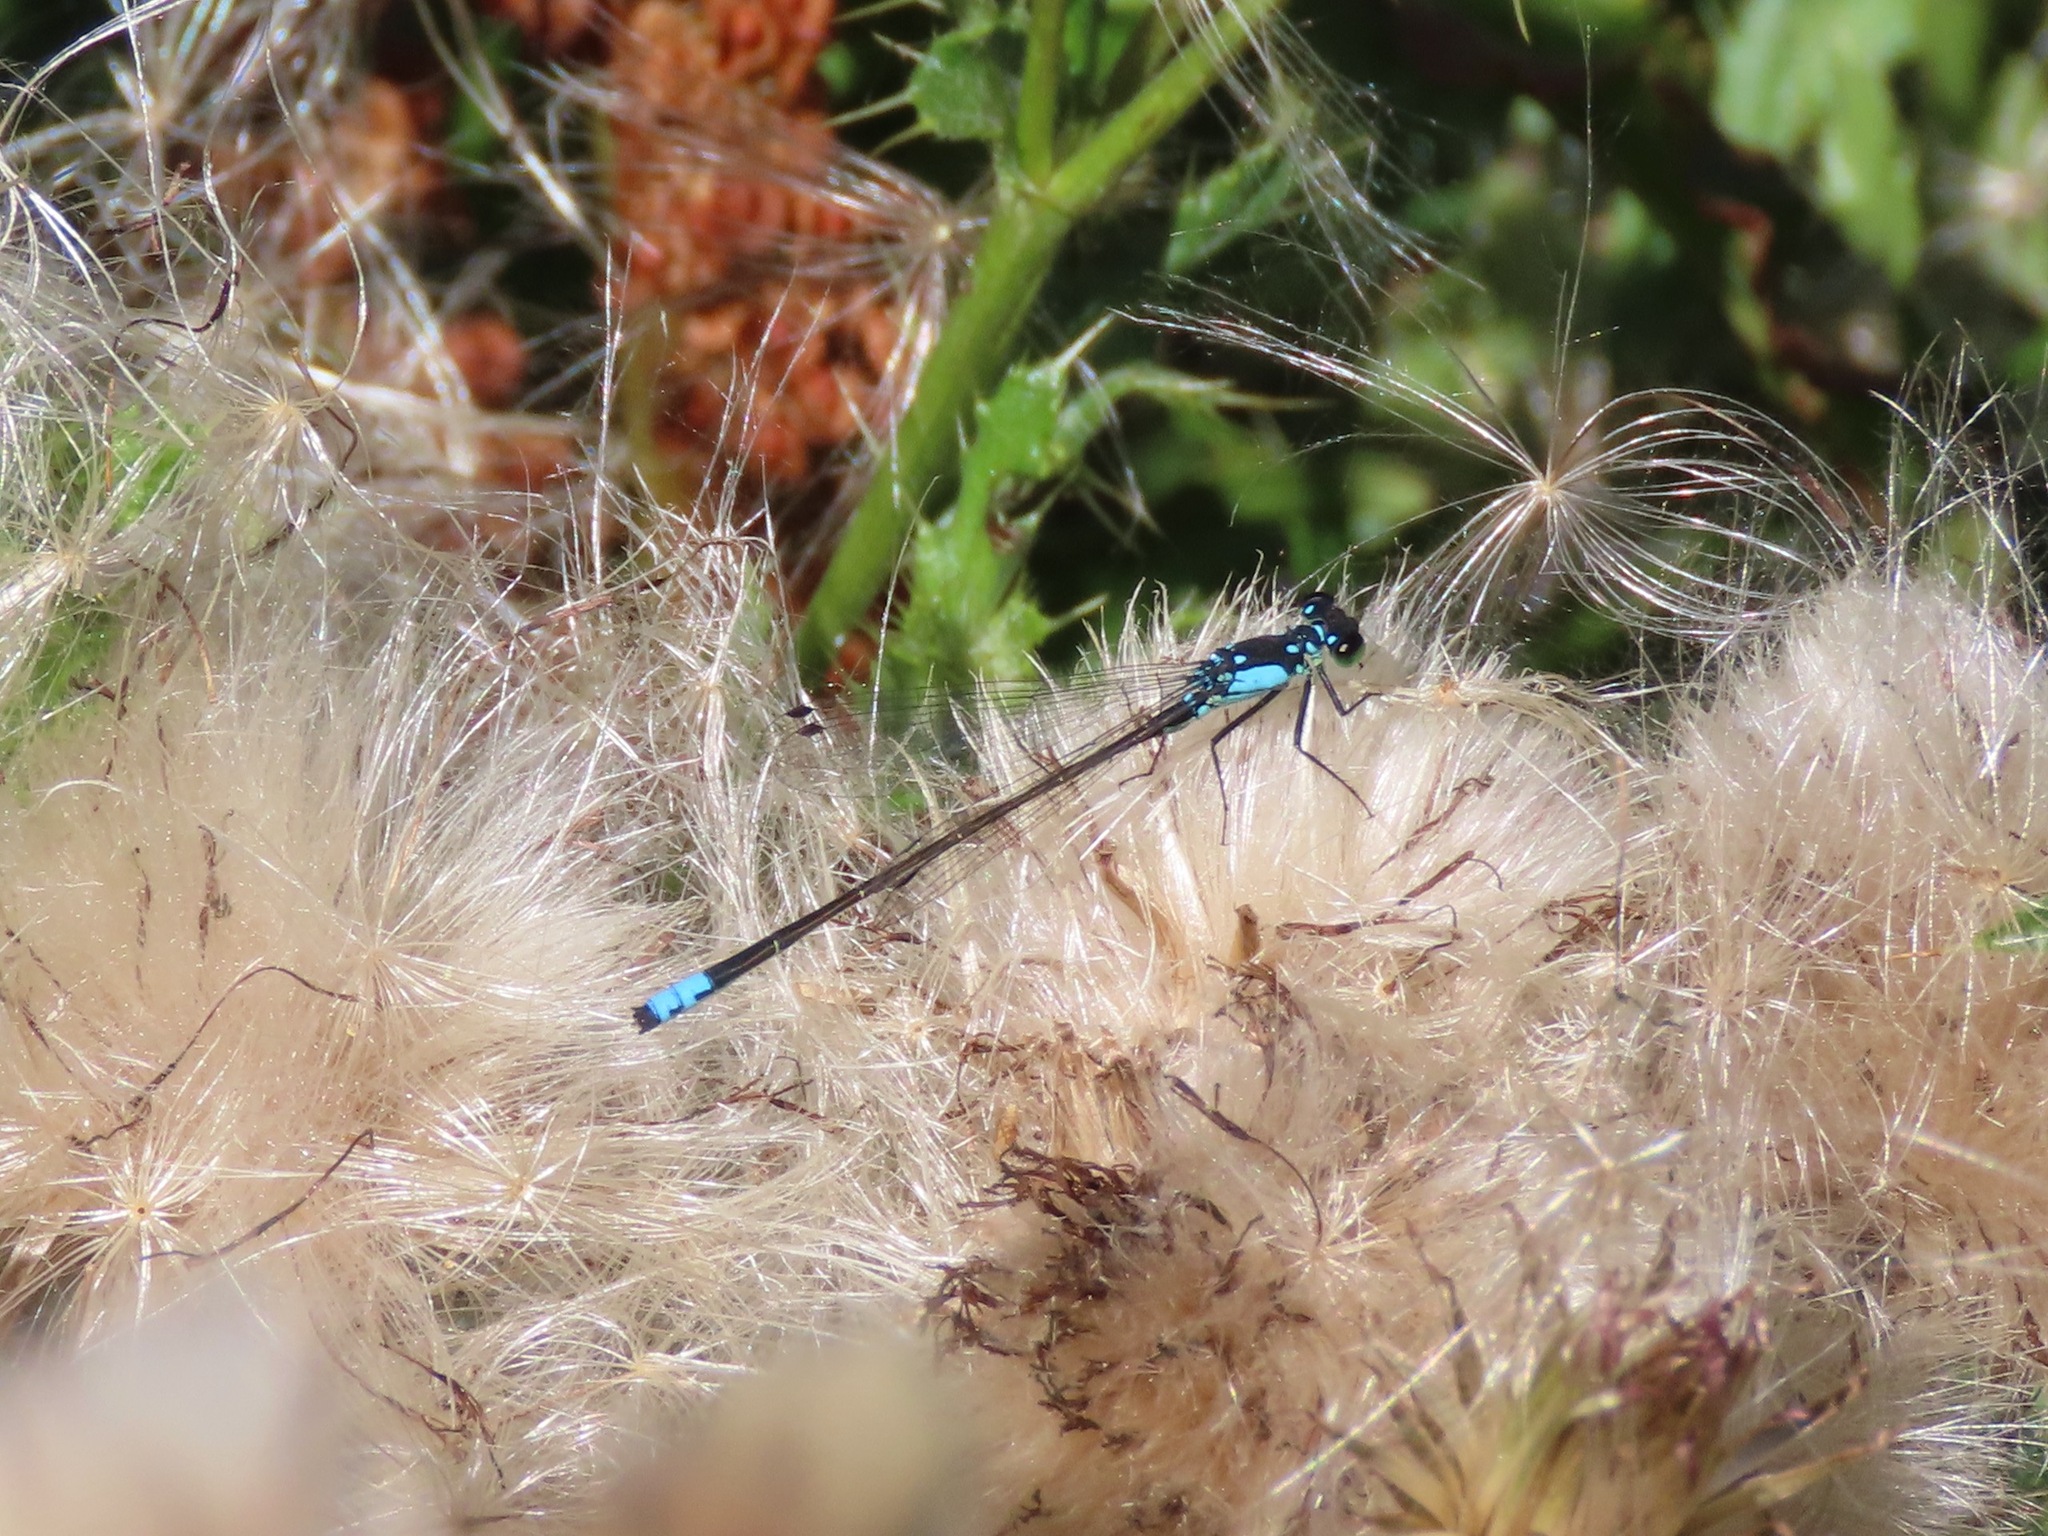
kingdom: Animalia
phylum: Arthropoda
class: Insecta
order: Odonata
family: Coenagrionidae
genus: Ischnura
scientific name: Ischnura cervula
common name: Pacific forktail
